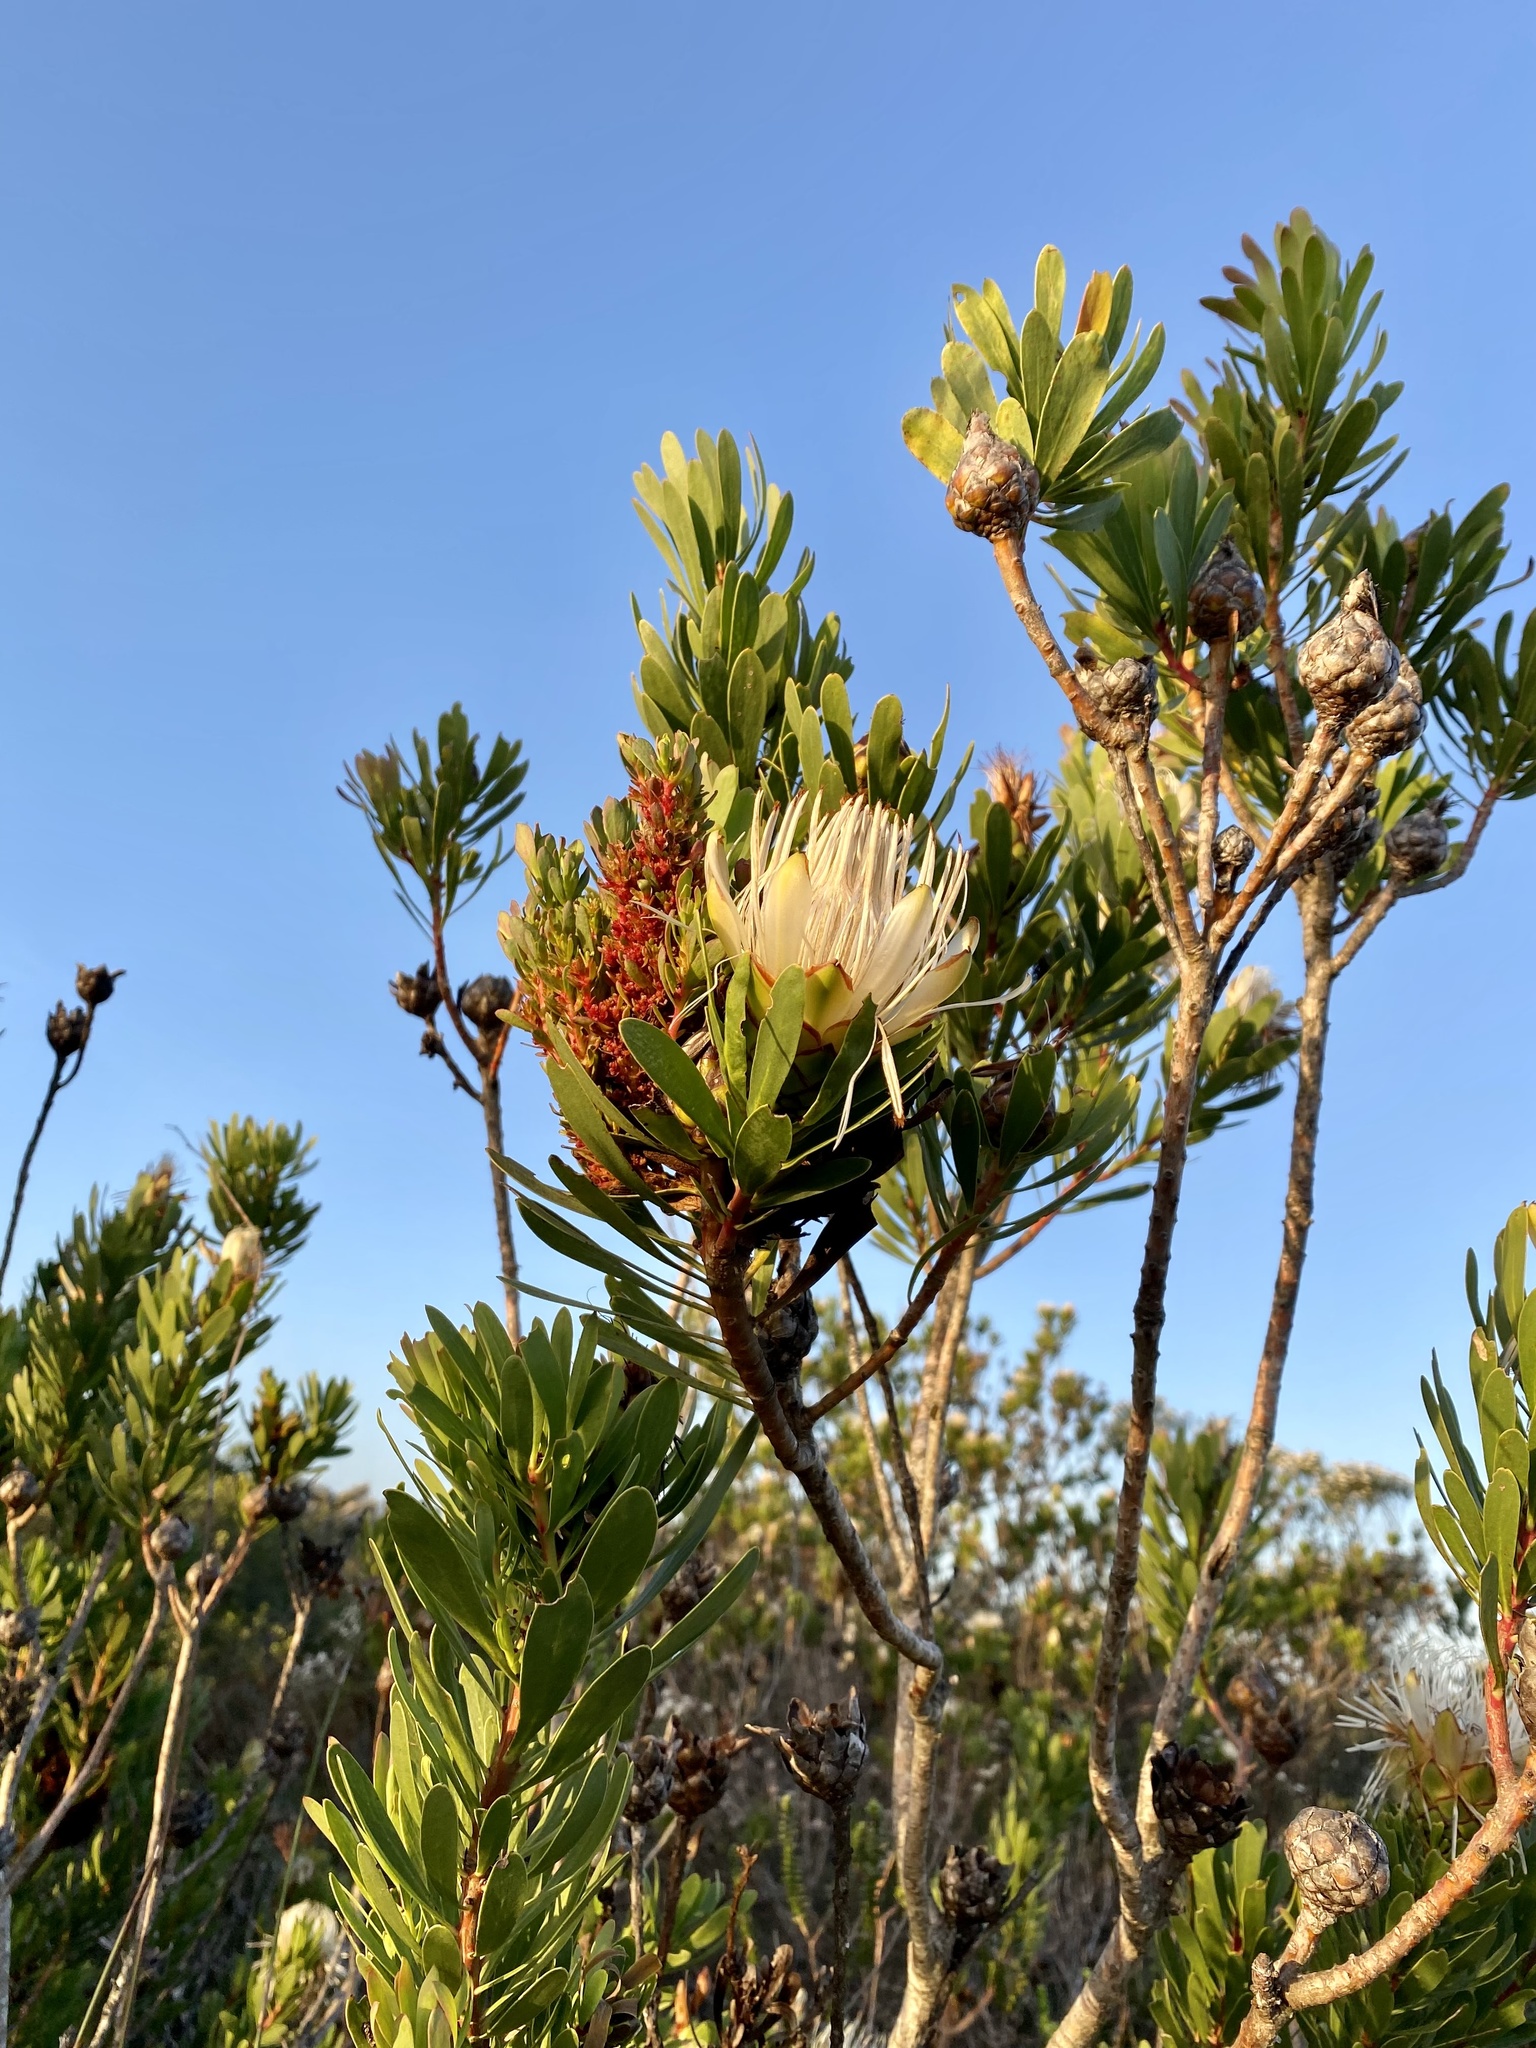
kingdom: Bacteria
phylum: Firmicutes
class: Bacilli
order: Acholeplasmatales
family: Acholeplasmataceae
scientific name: Acholeplasmataceae
